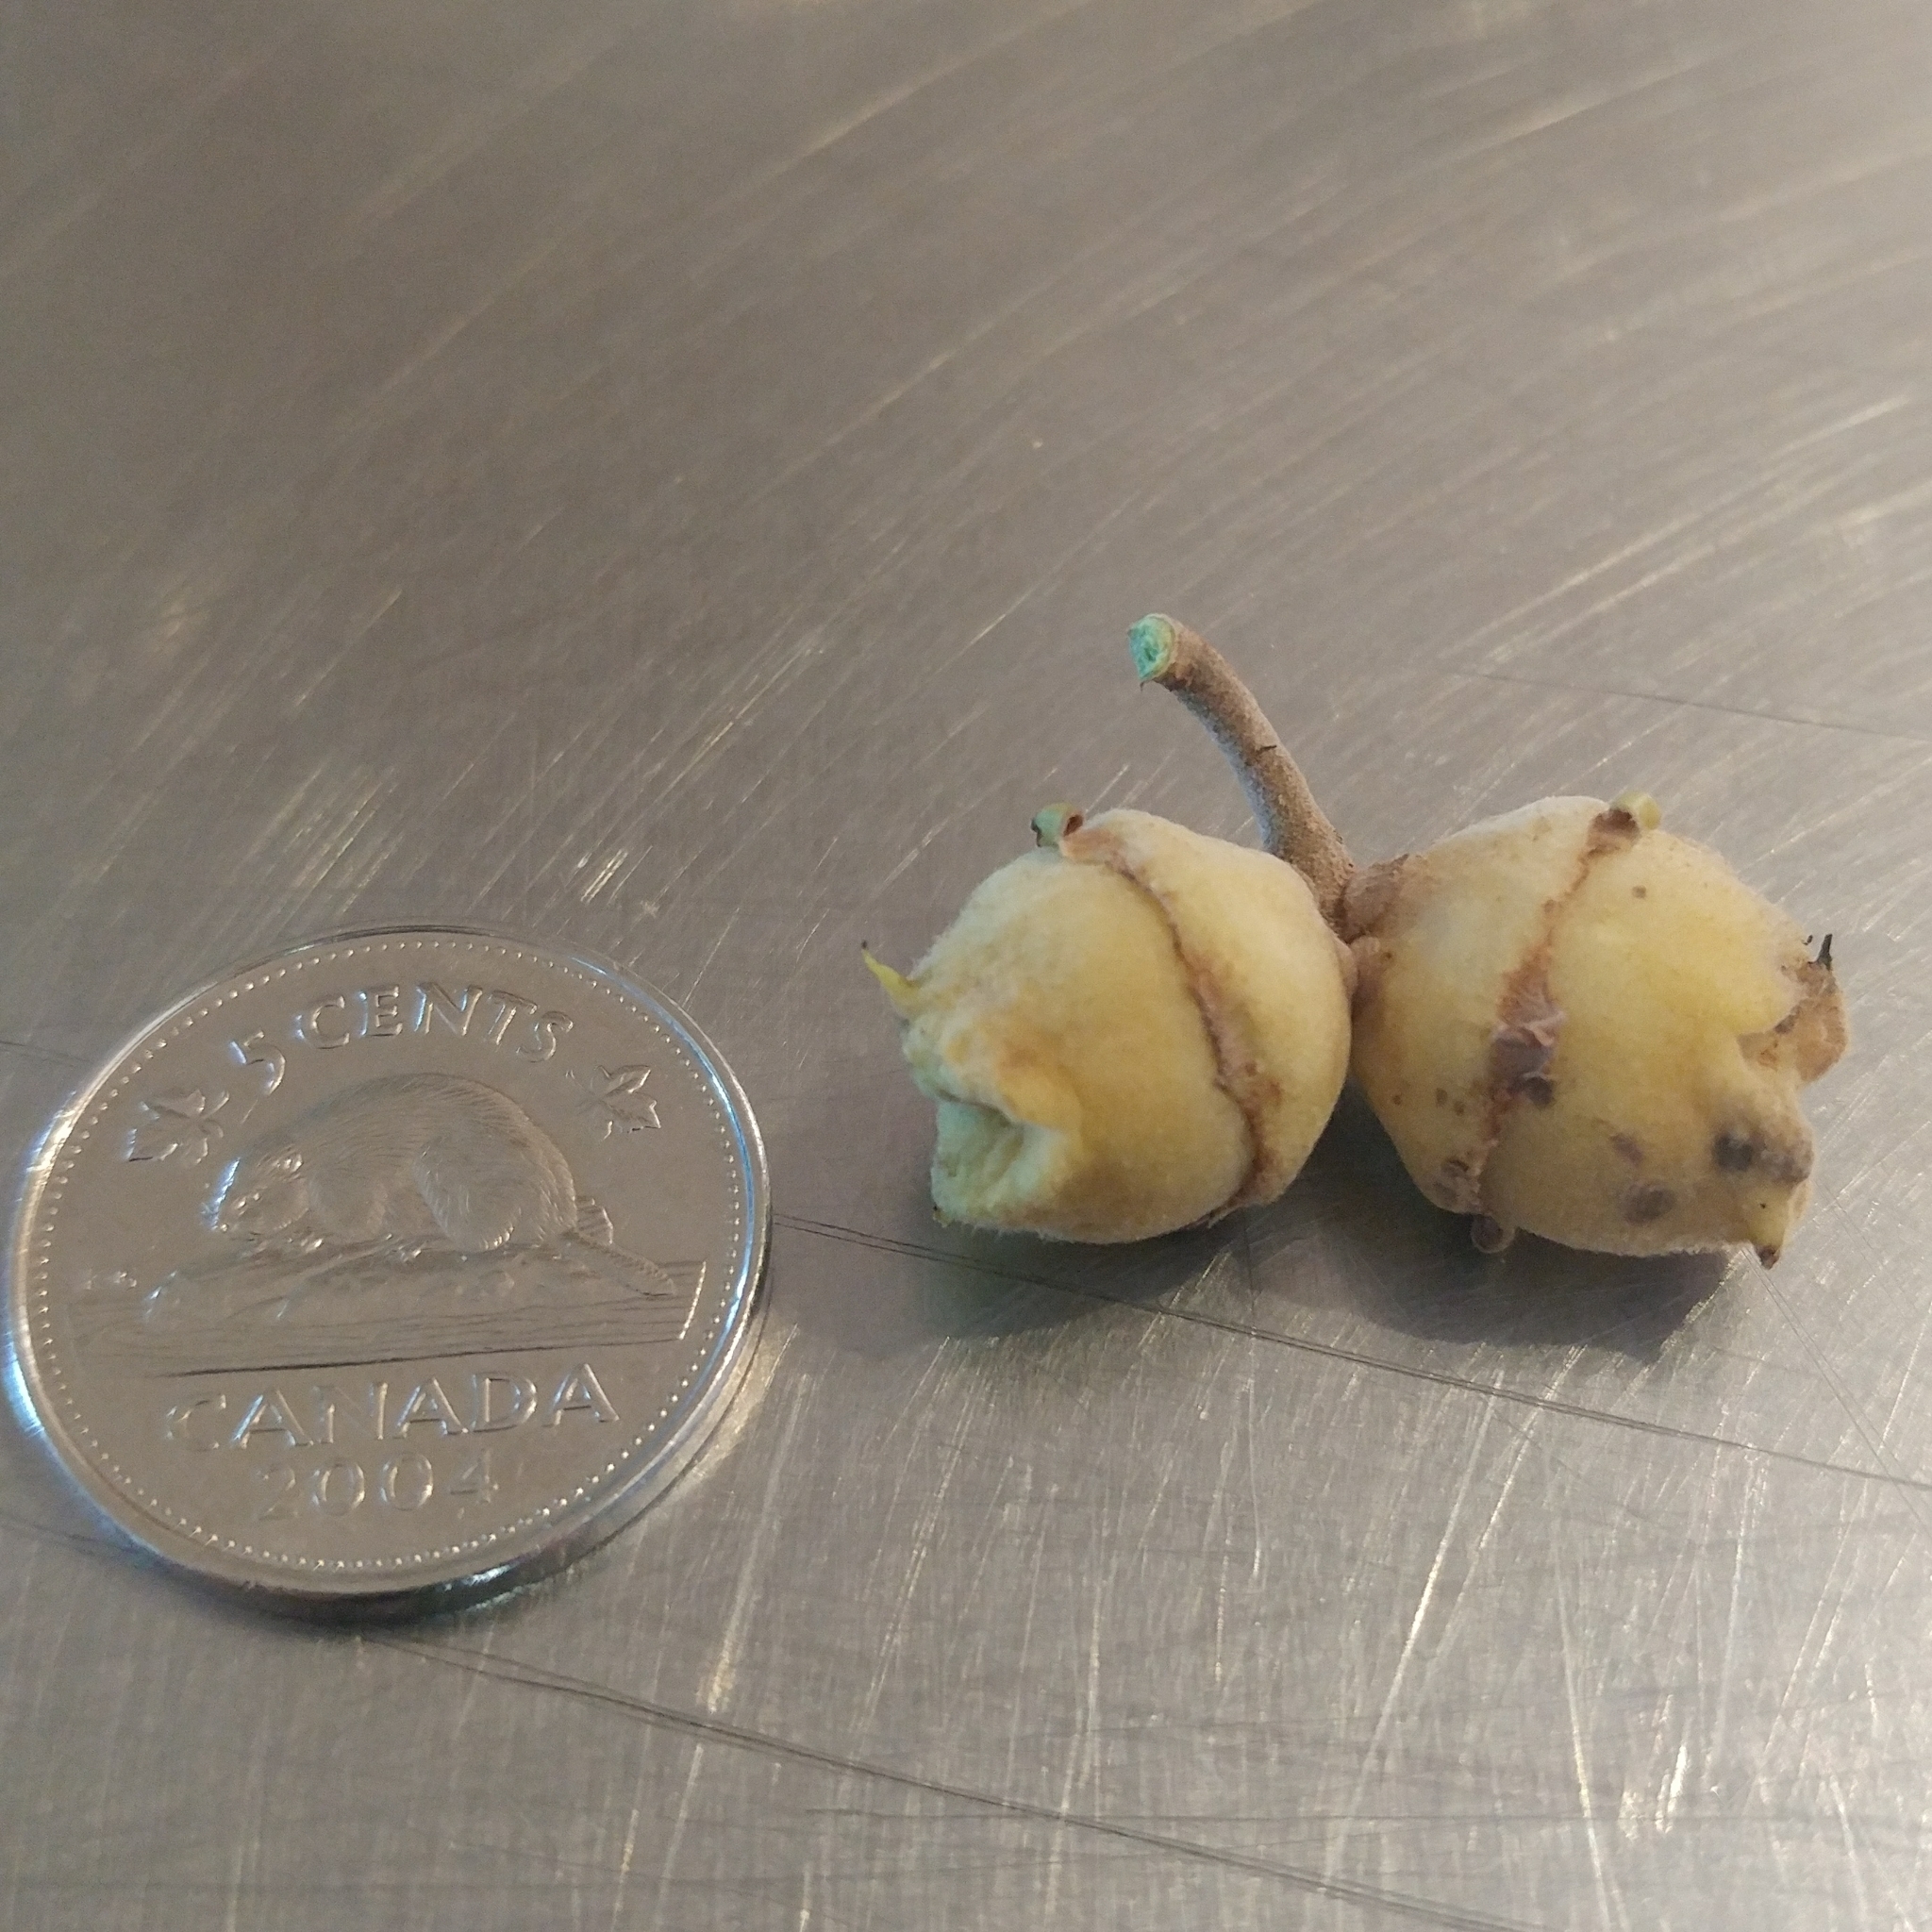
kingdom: Plantae
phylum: Tracheophyta
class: Magnoliopsida
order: Saxifragales
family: Hamamelidaceae
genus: Hamamelis
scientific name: Hamamelis virginiana
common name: Witch-hazel
